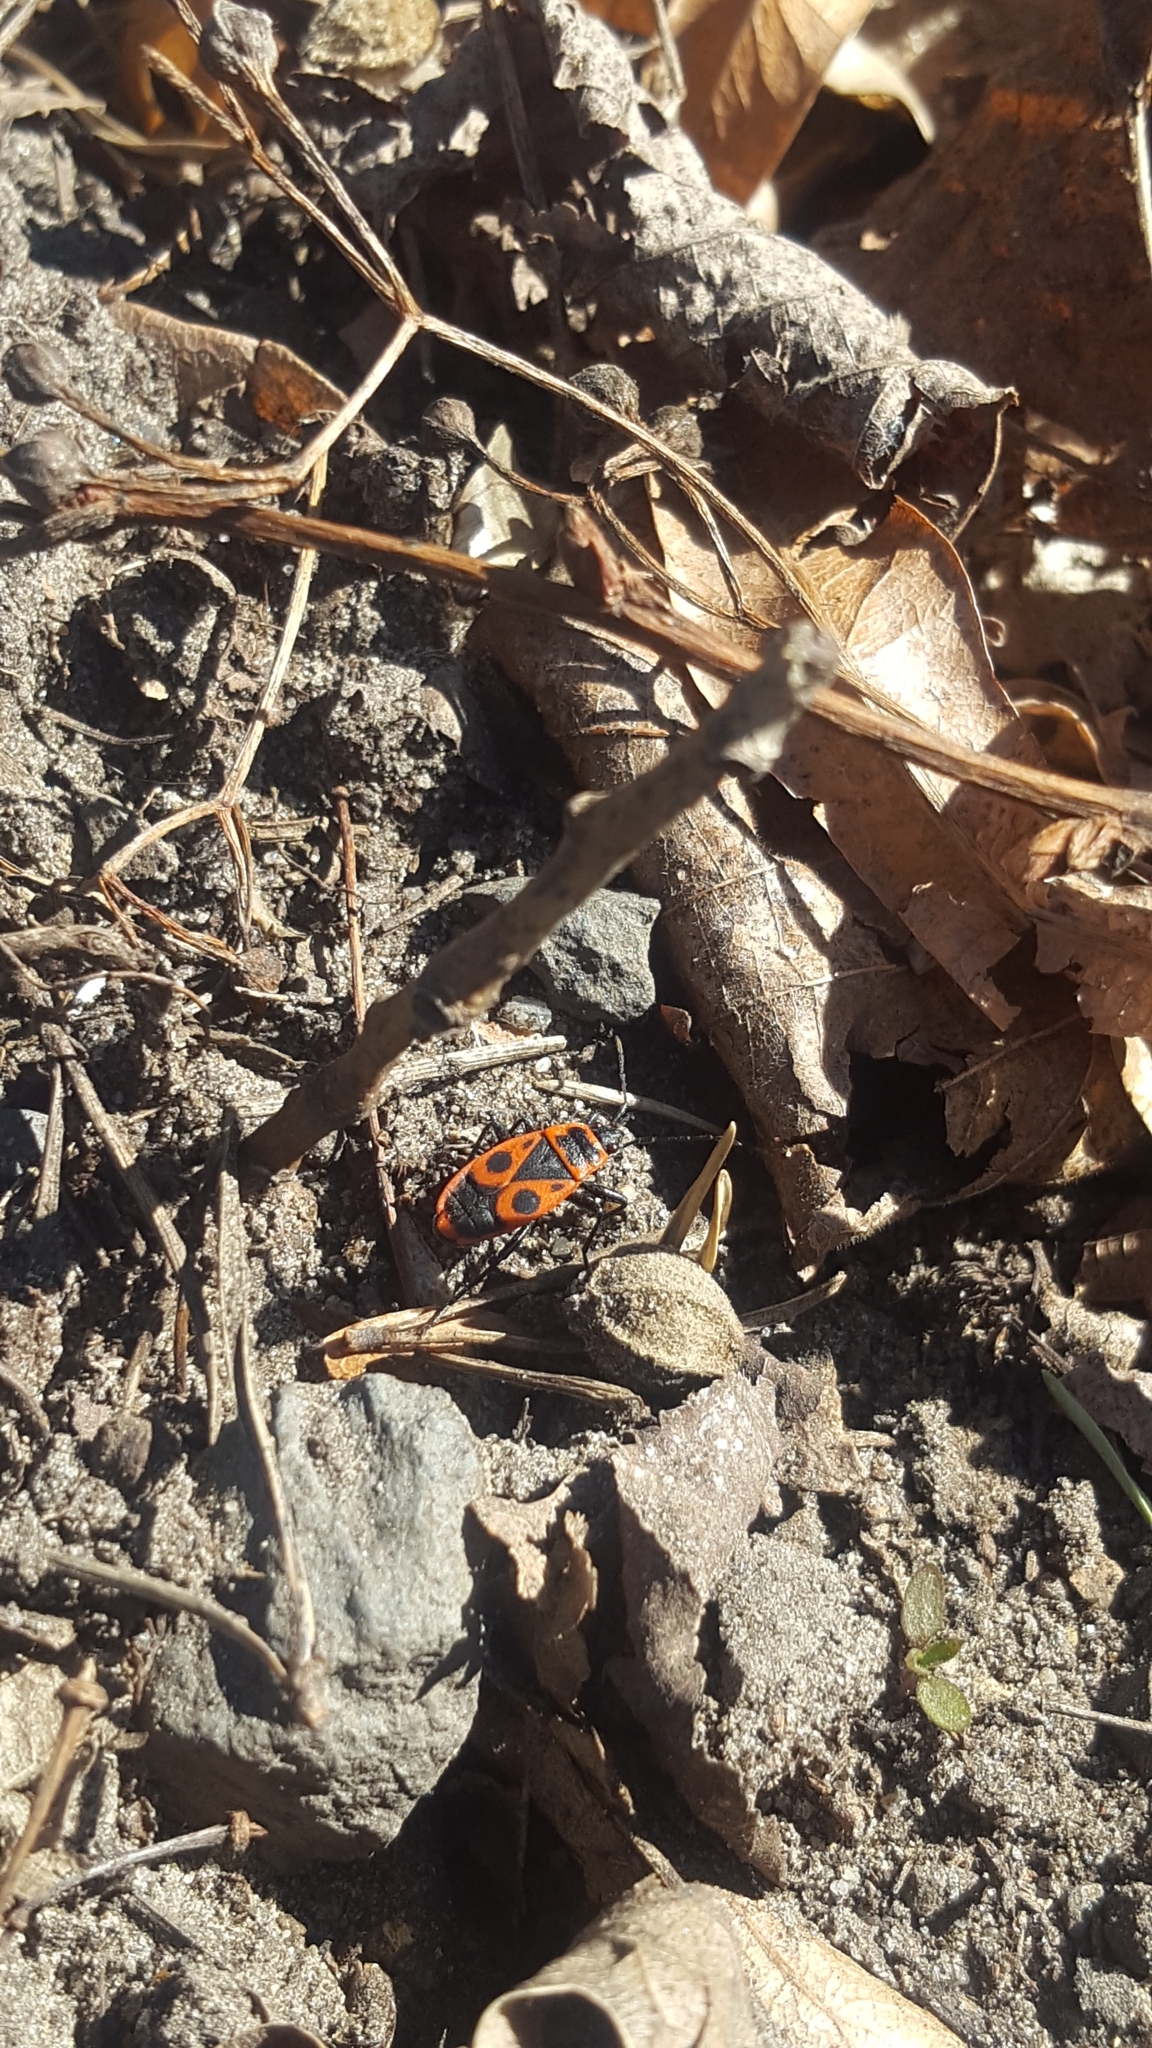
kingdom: Animalia
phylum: Arthropoda
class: Insecta
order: Hemiptera
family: Pyrrhocoridae
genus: Pyrrhocoris
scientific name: Pyrrhocoris apterus
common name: Firebug
